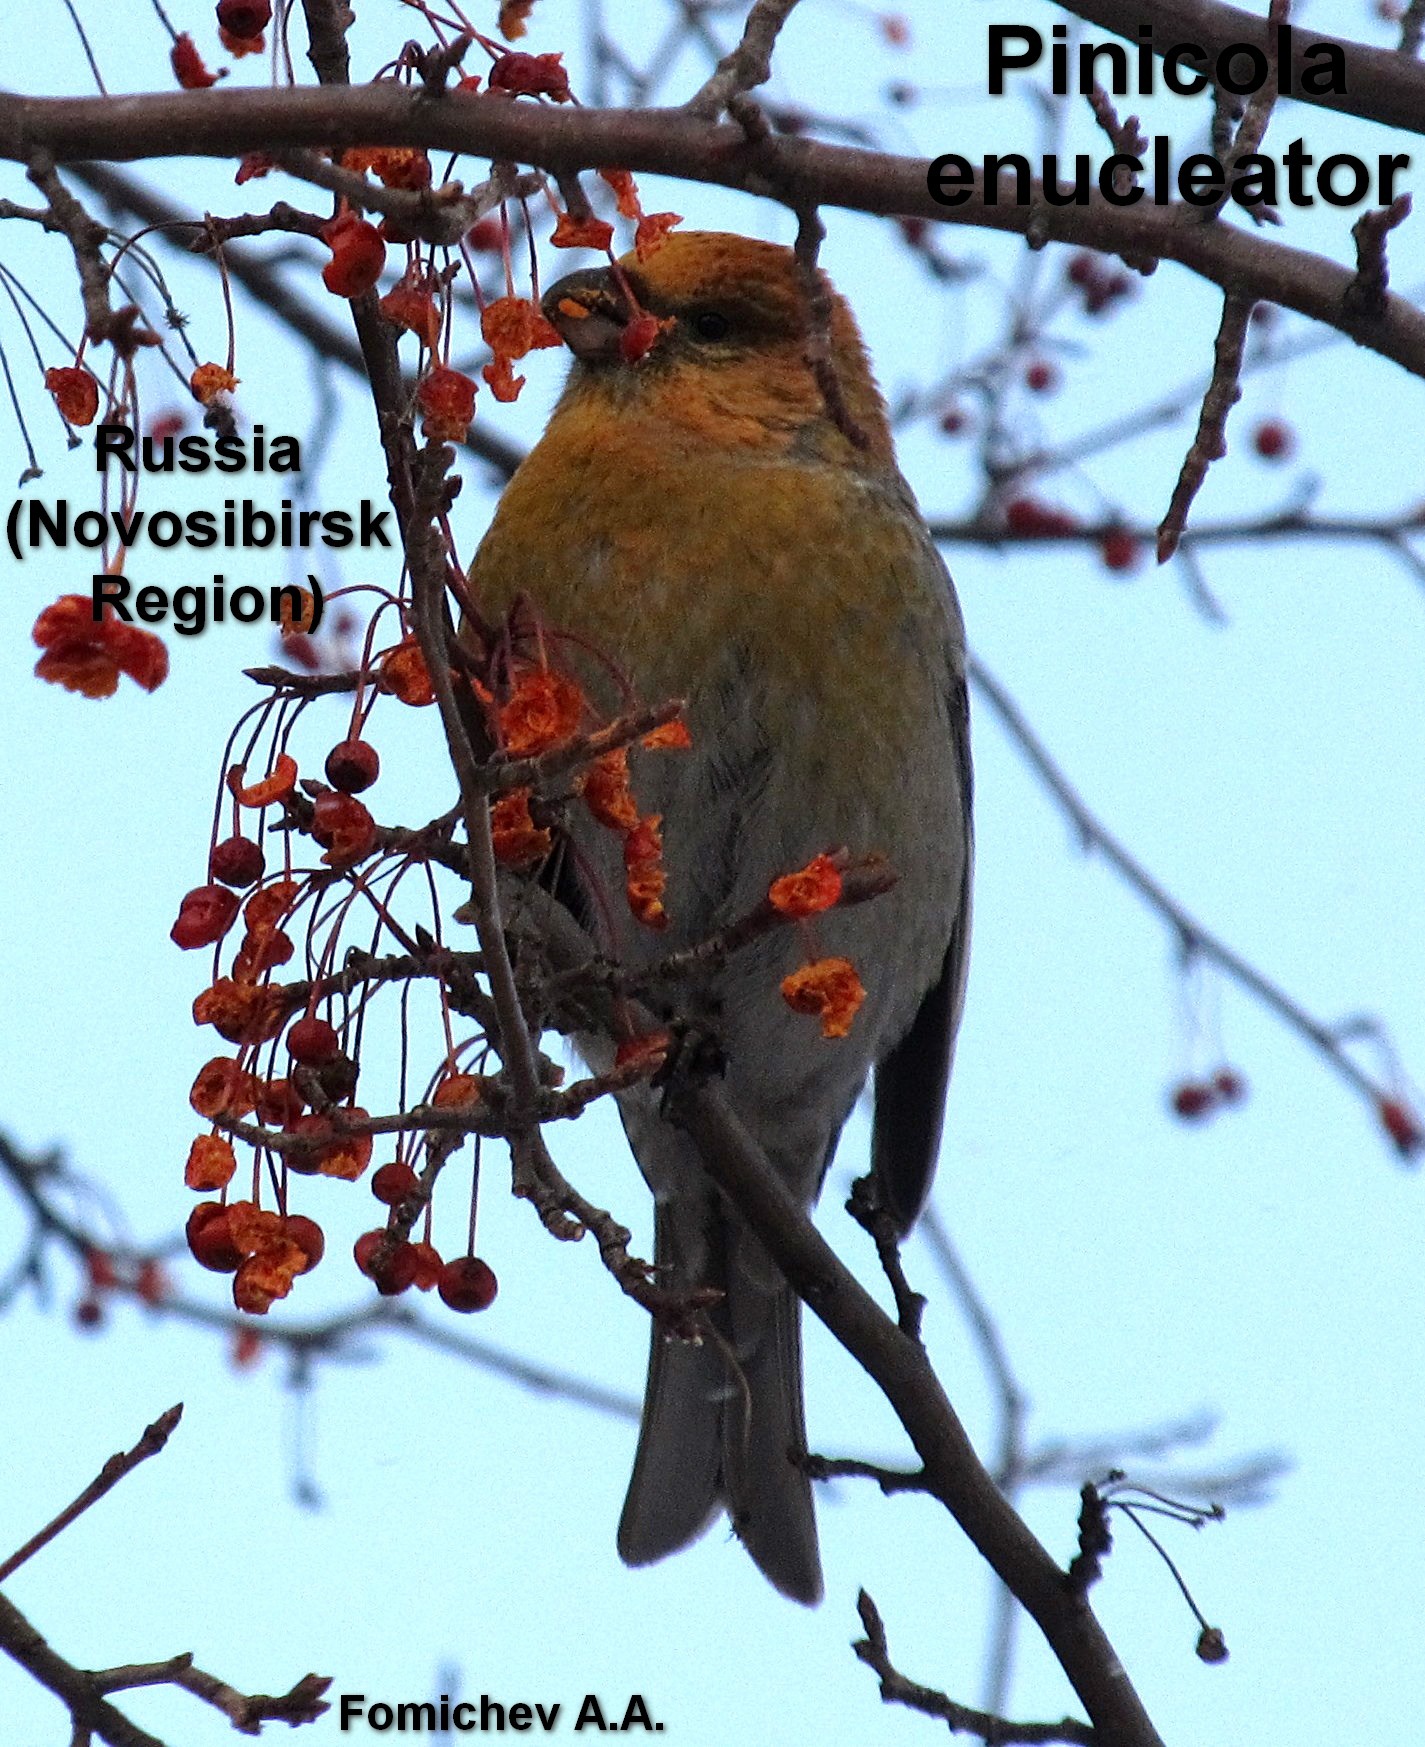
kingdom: Animalia
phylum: Chordata
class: Aves
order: Passeriformes
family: Fringillidae
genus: Pinicola
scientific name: Pinicola enucleator
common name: Pine grosbeak
